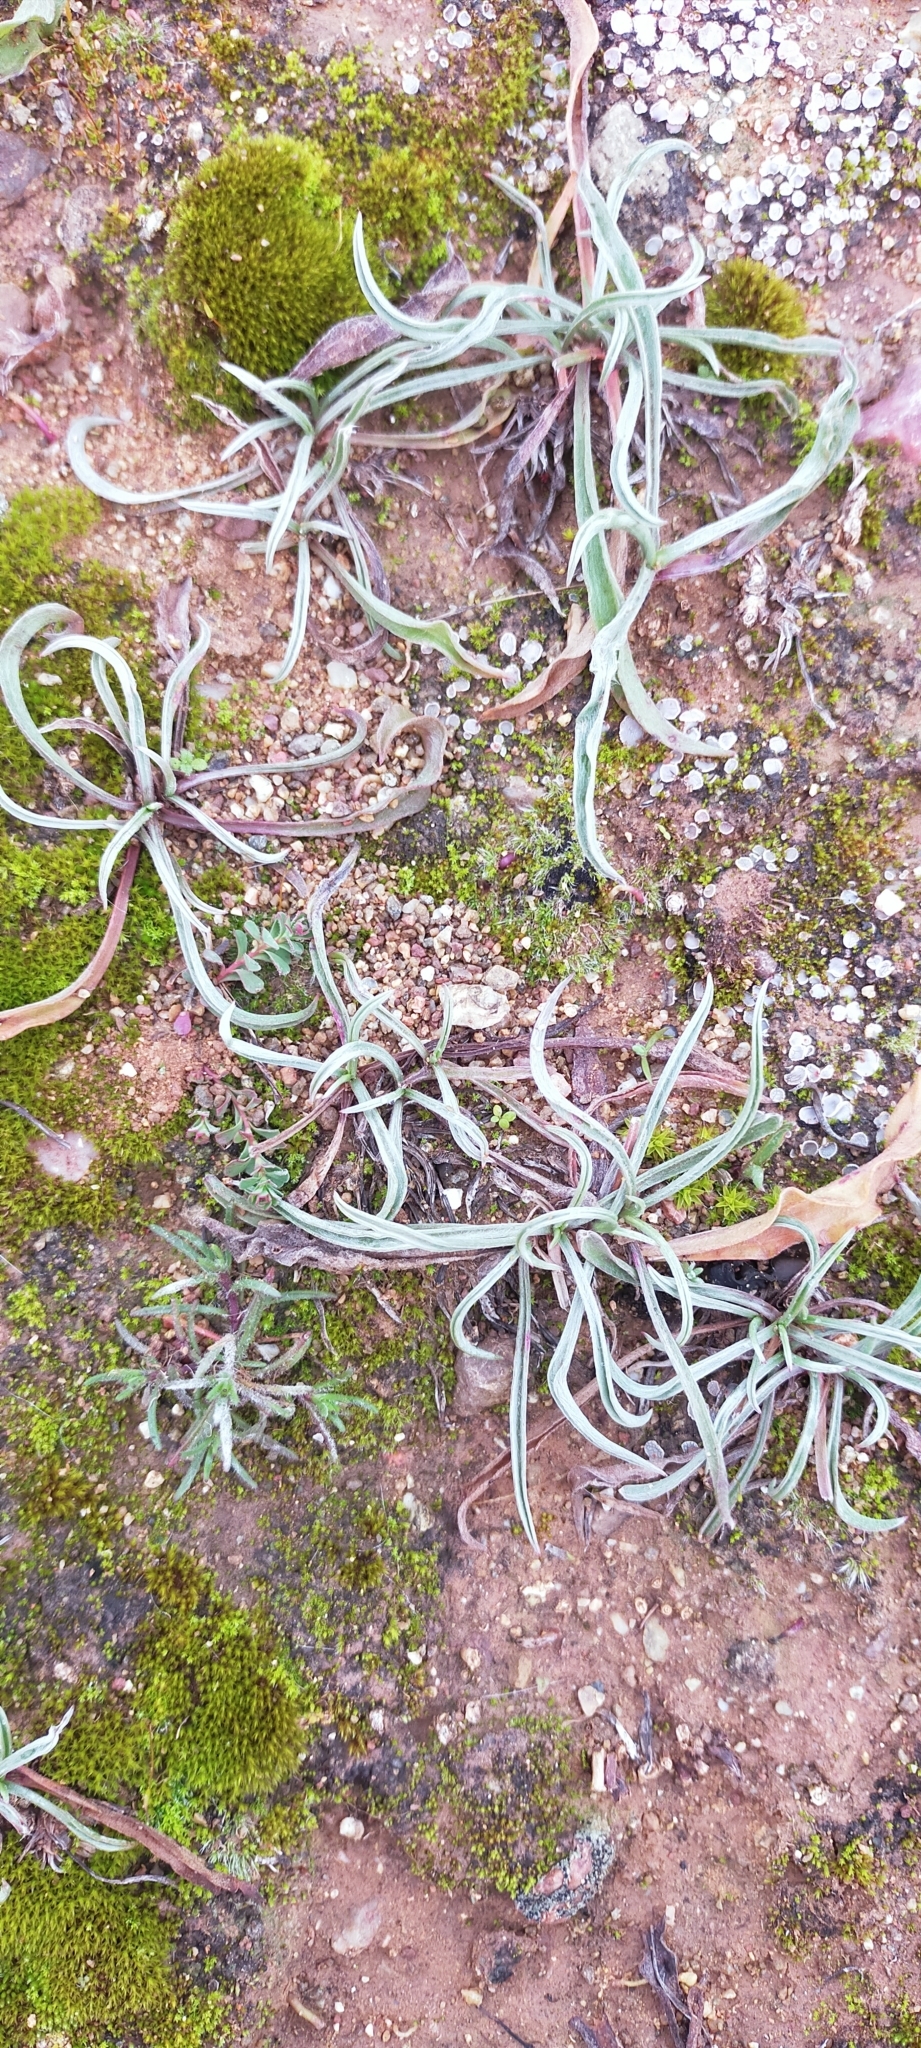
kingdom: Plantae
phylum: Tracheophyta
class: Magnoliopsida
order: Lamiales
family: Plantaginaceae
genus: Plantago
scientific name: Plantago albicans
